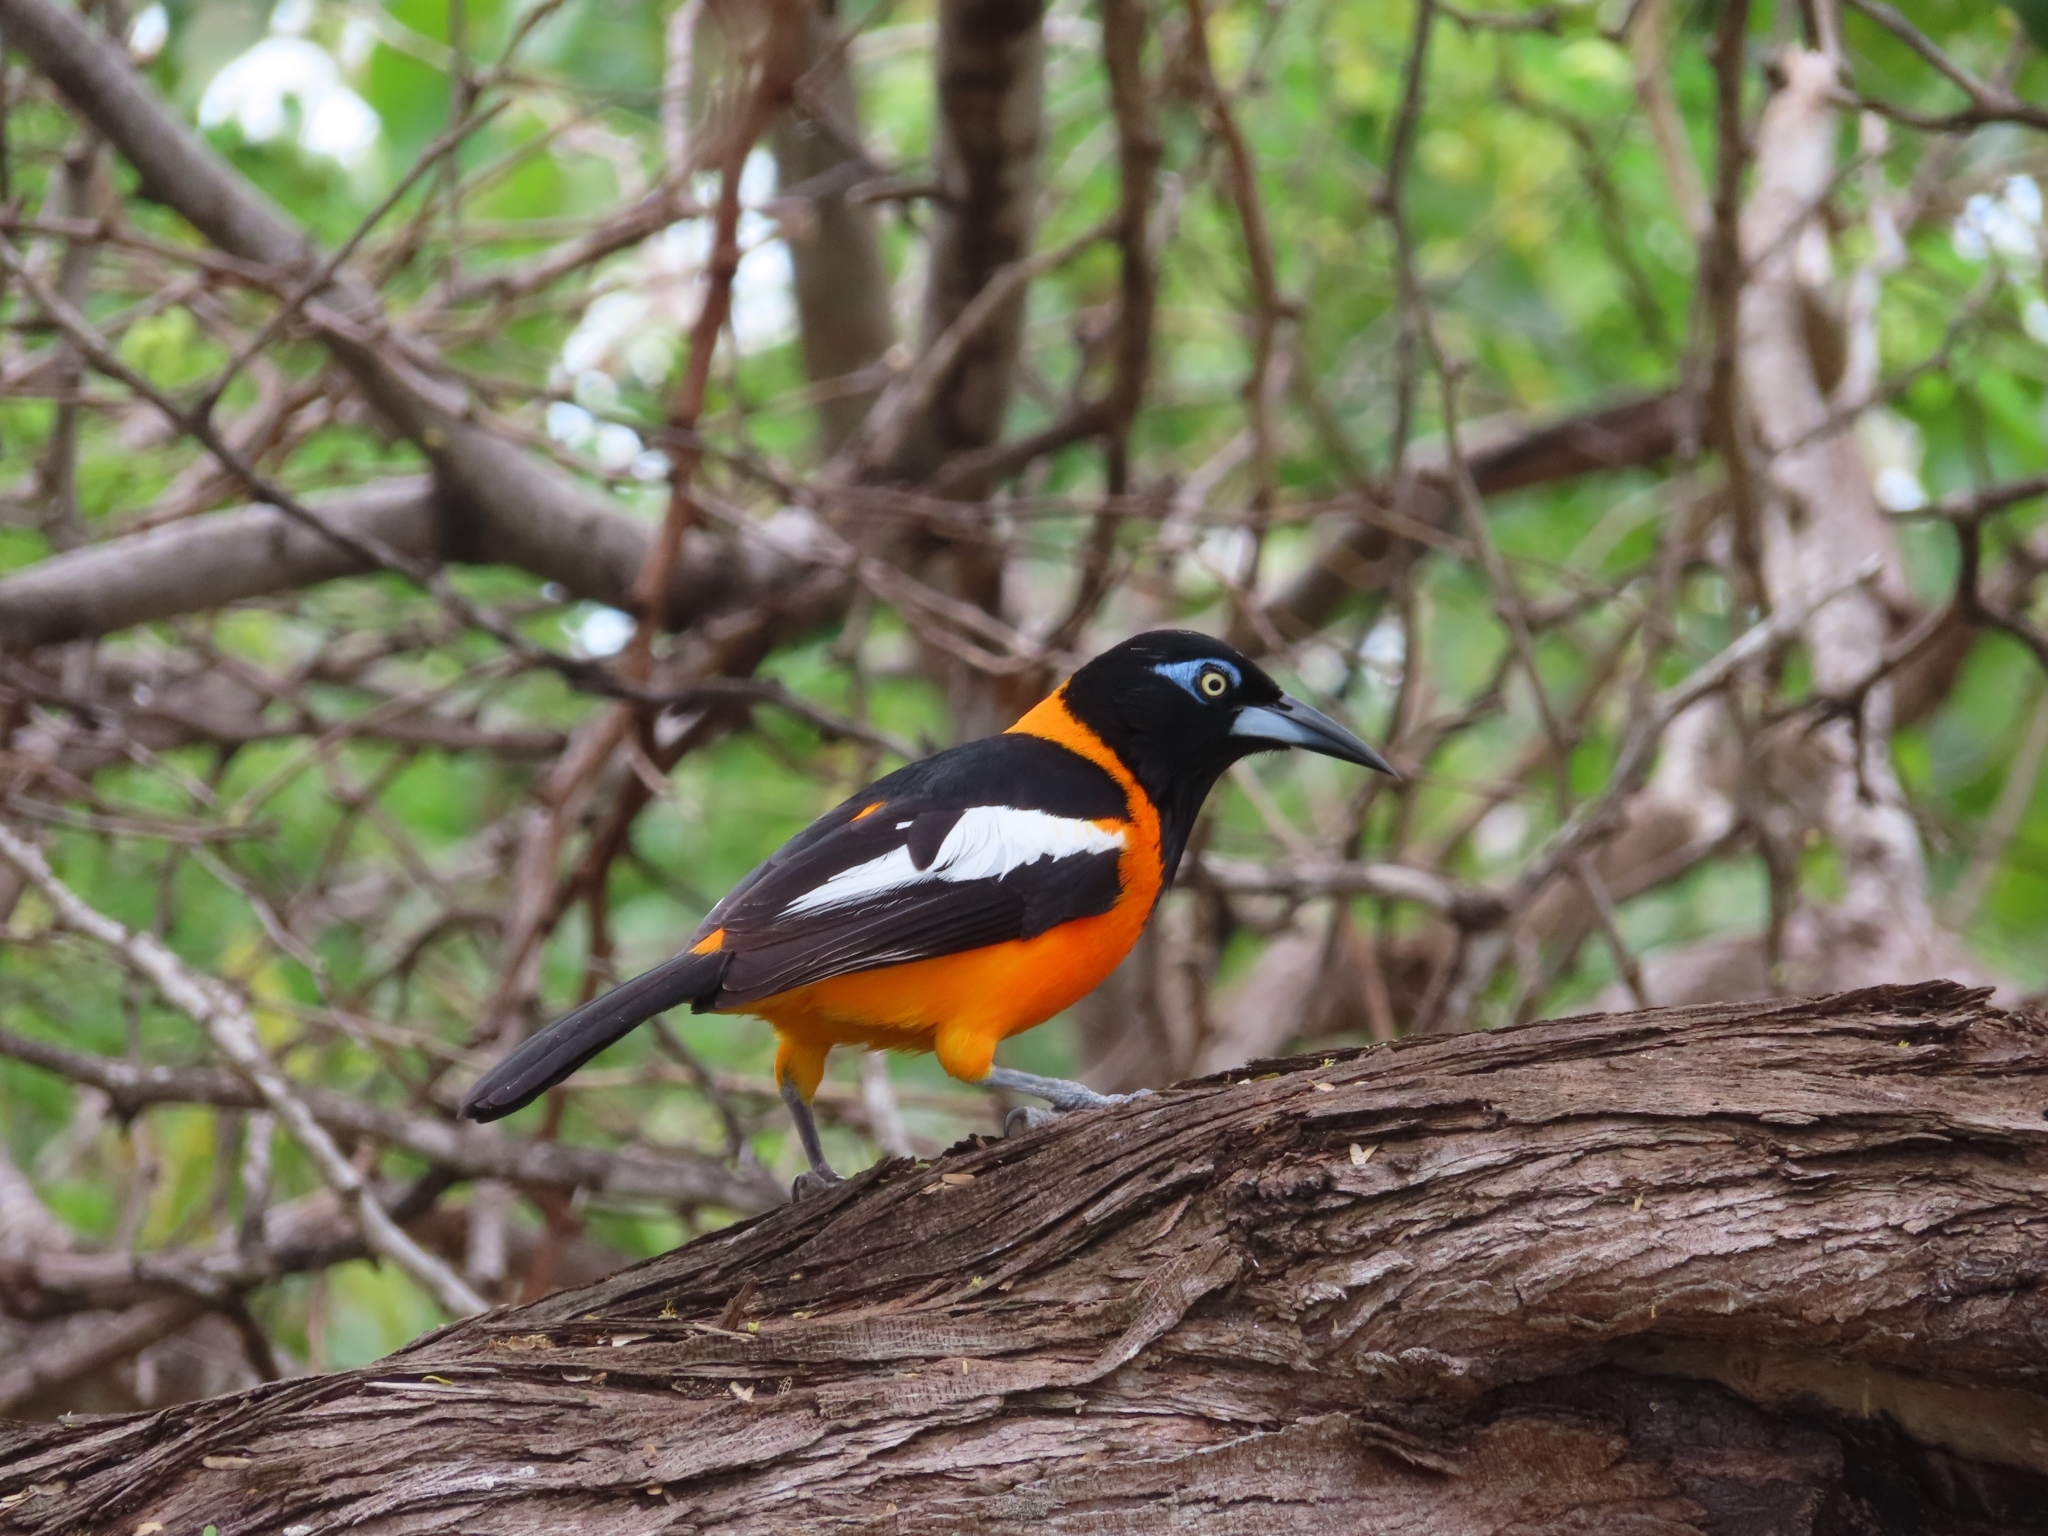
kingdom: Animalia
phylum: Chordata
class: Aves
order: Passeriformes
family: Icteridae
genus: Icterus
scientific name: Icterus icterus
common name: Venezuelan troupial
